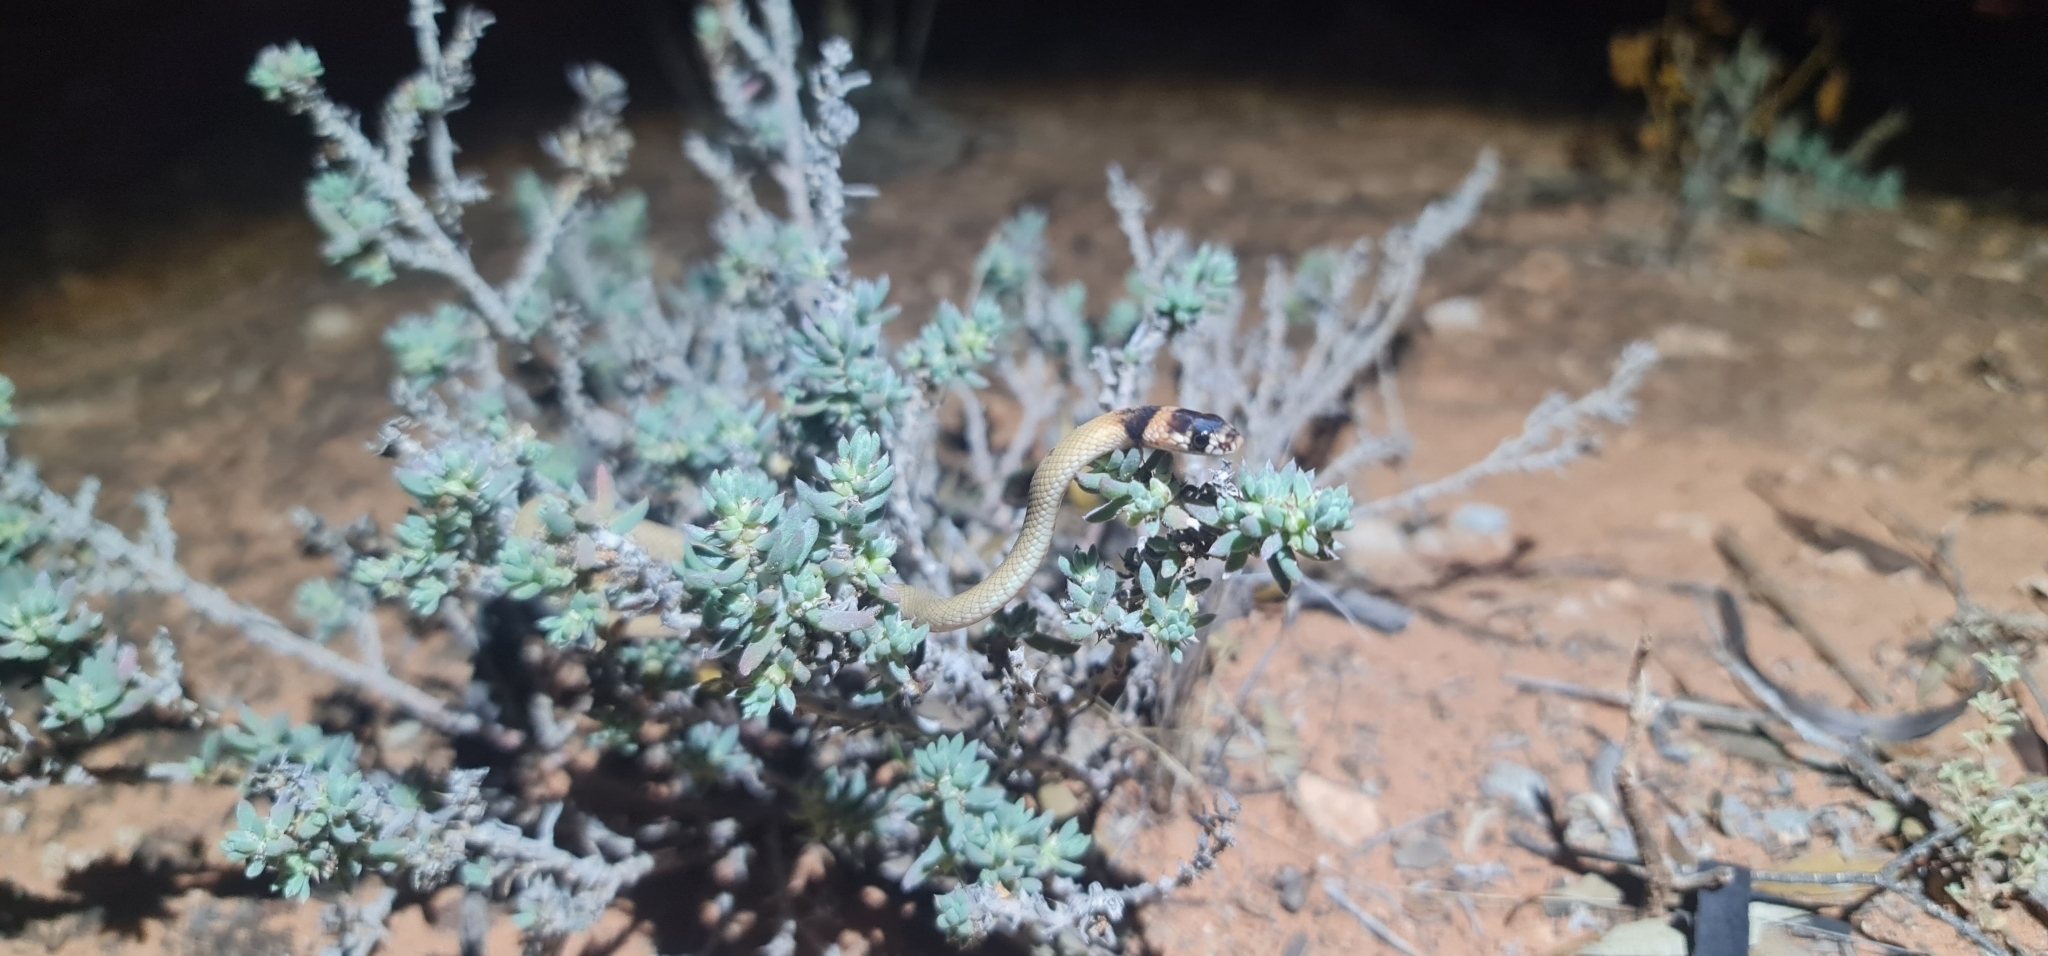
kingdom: Animalia
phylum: Chordata
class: Squamata
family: Elapidae
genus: Pseudonaja
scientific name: Pseudonaja aspidorhyncha
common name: Strap-snouted brown snake
